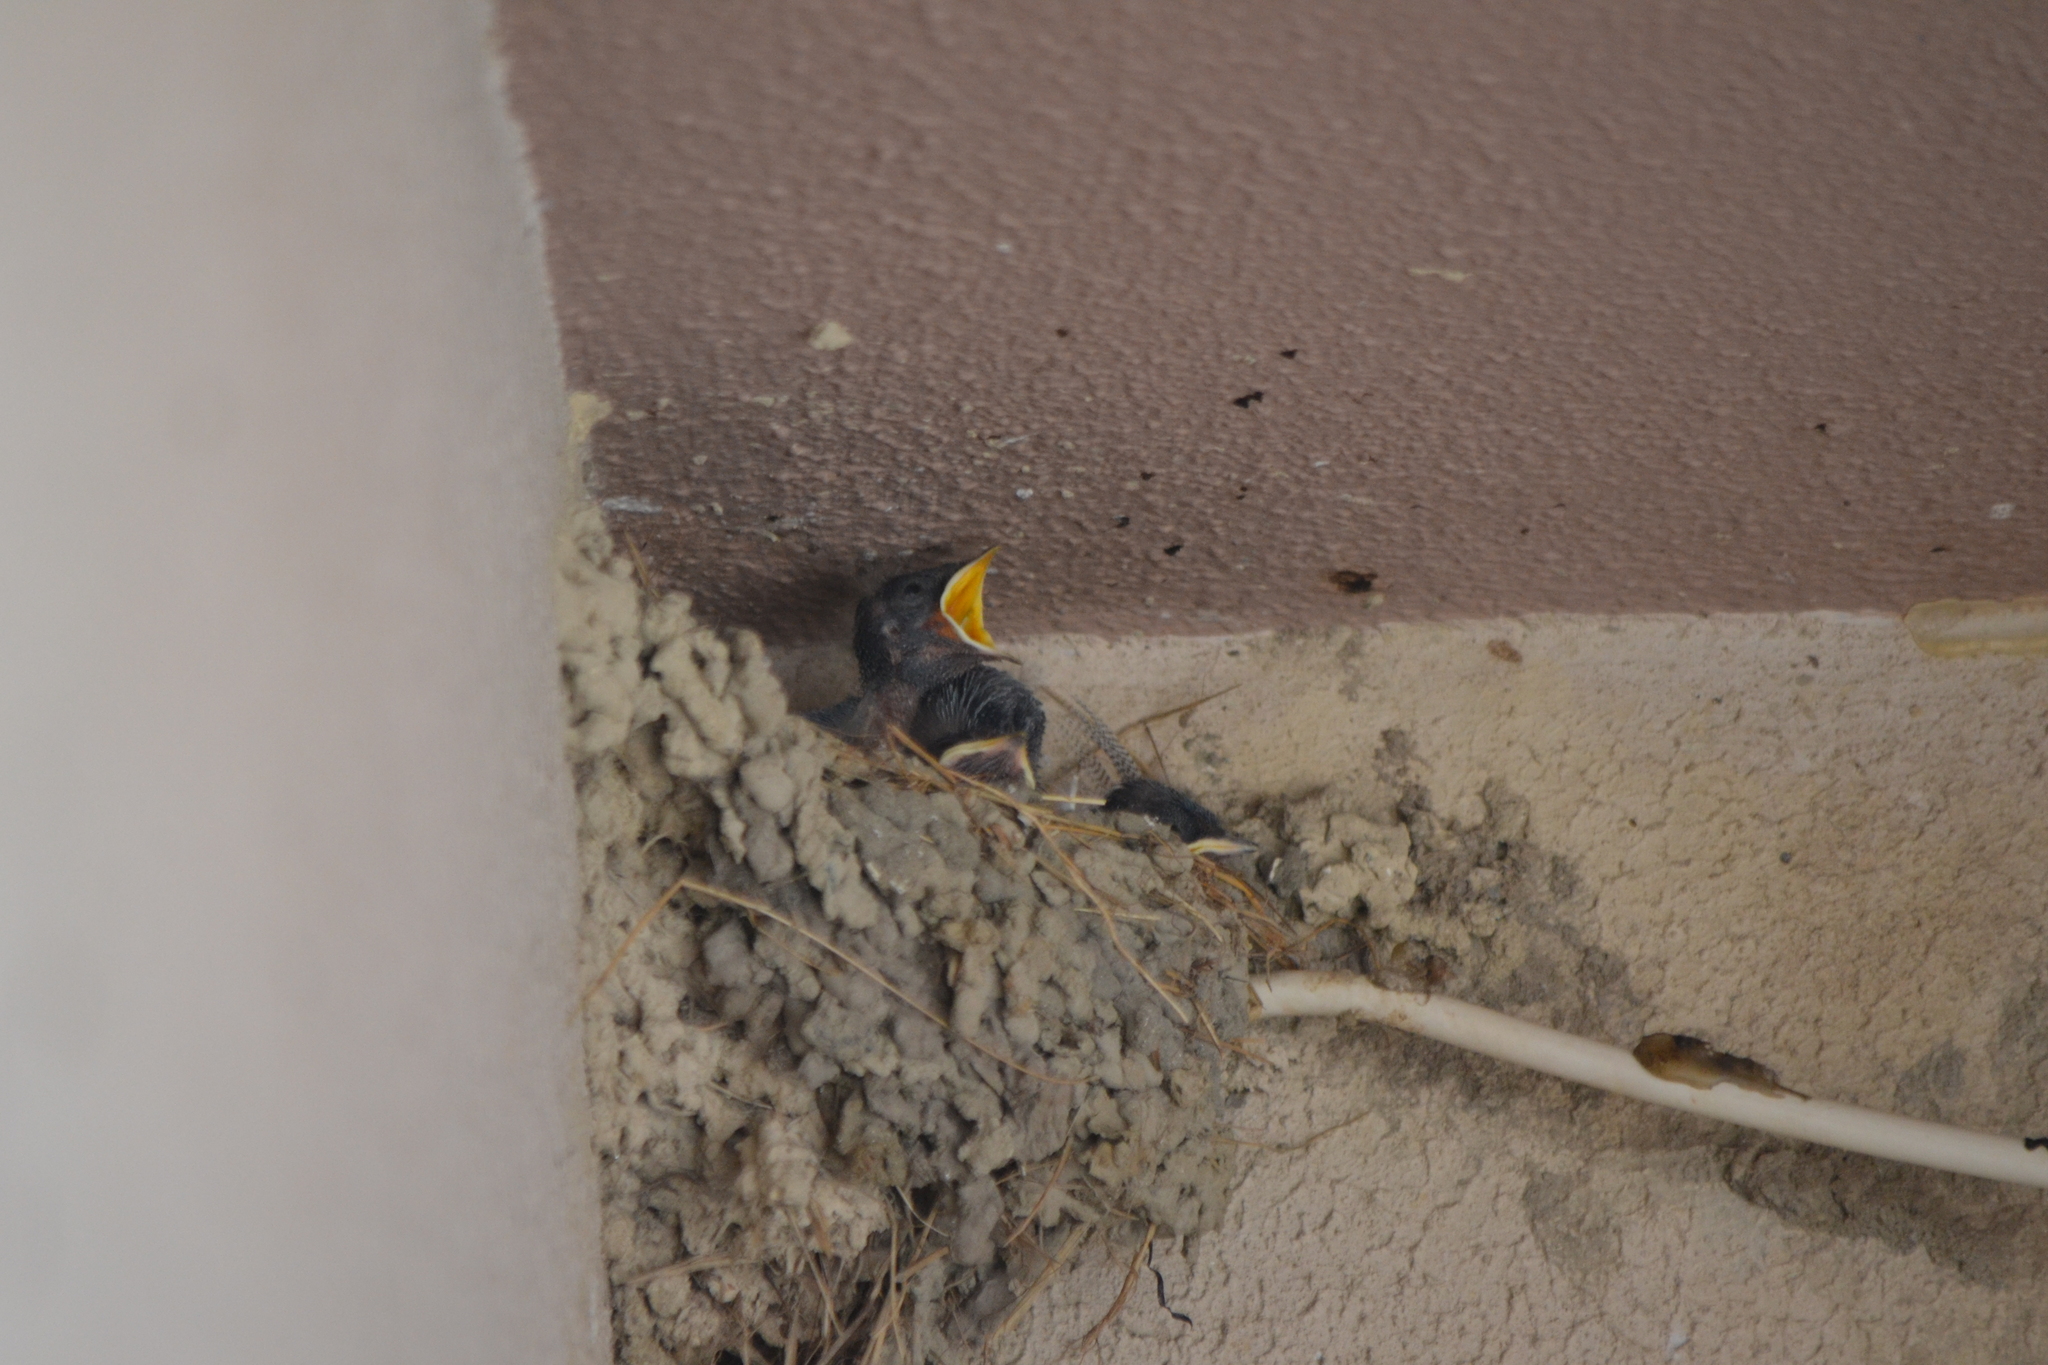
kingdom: Animalia
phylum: Chordata
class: Aves
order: Passeriformes
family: Hirundinidae
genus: Hirundo
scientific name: Hirundo rustica
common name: Barn swallow
